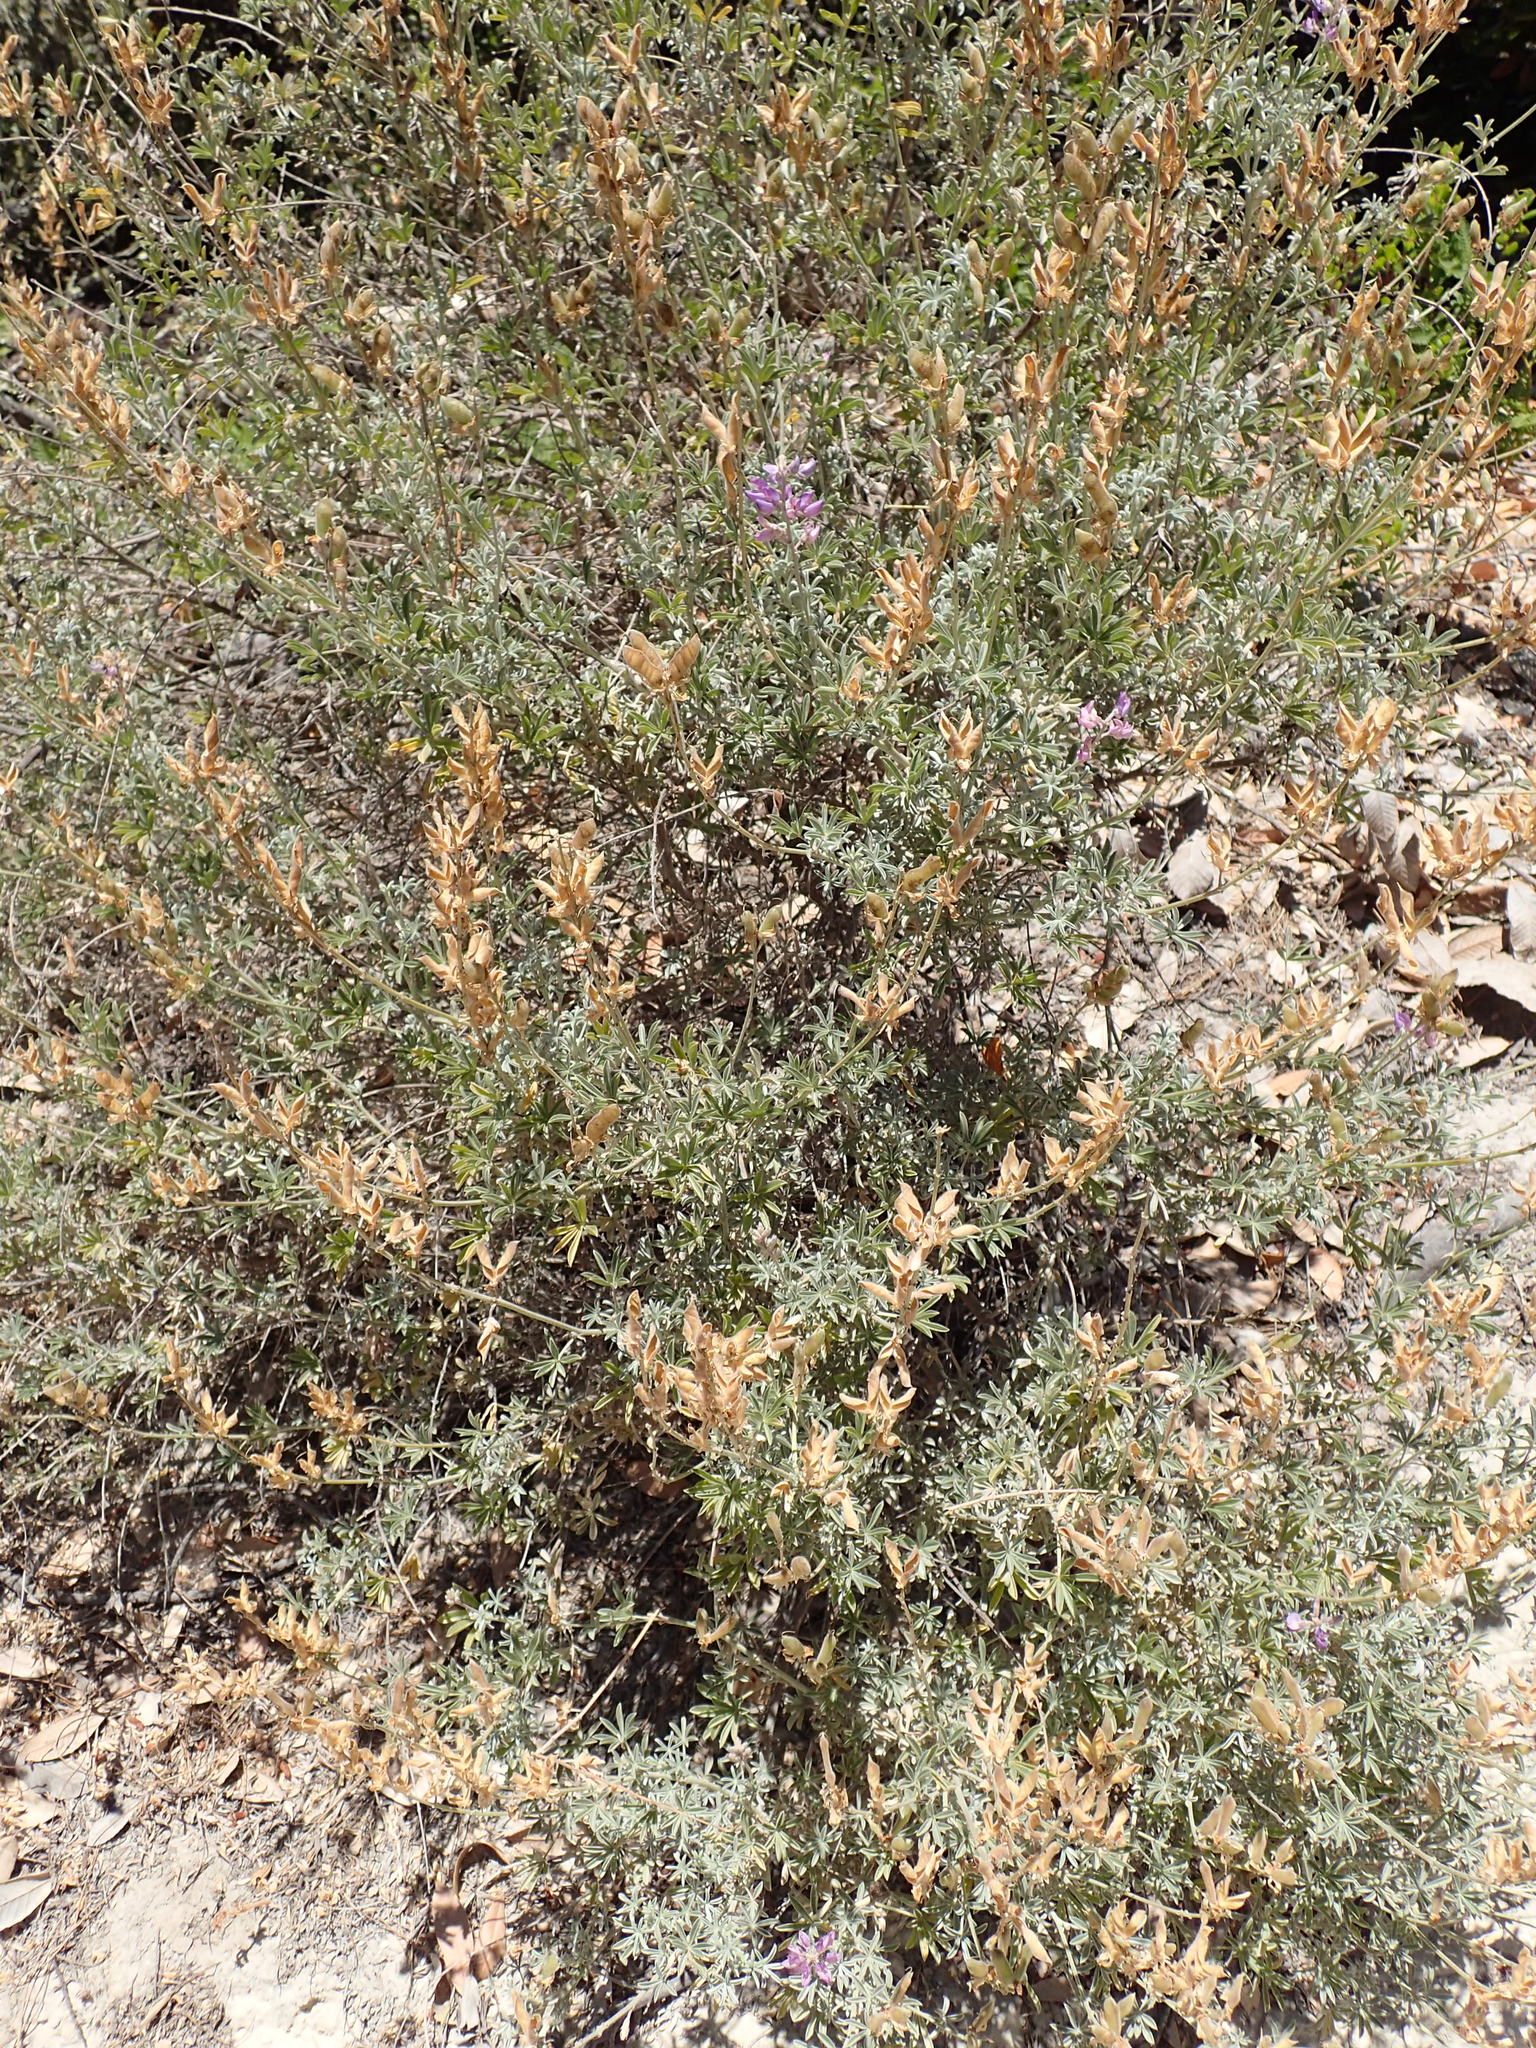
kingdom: Plantae
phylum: Tracheophyta
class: Magnoliopsida
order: Fabales
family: Fabaceae
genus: Lupinus
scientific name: Lupinus albifrons
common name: Foothill lupine
